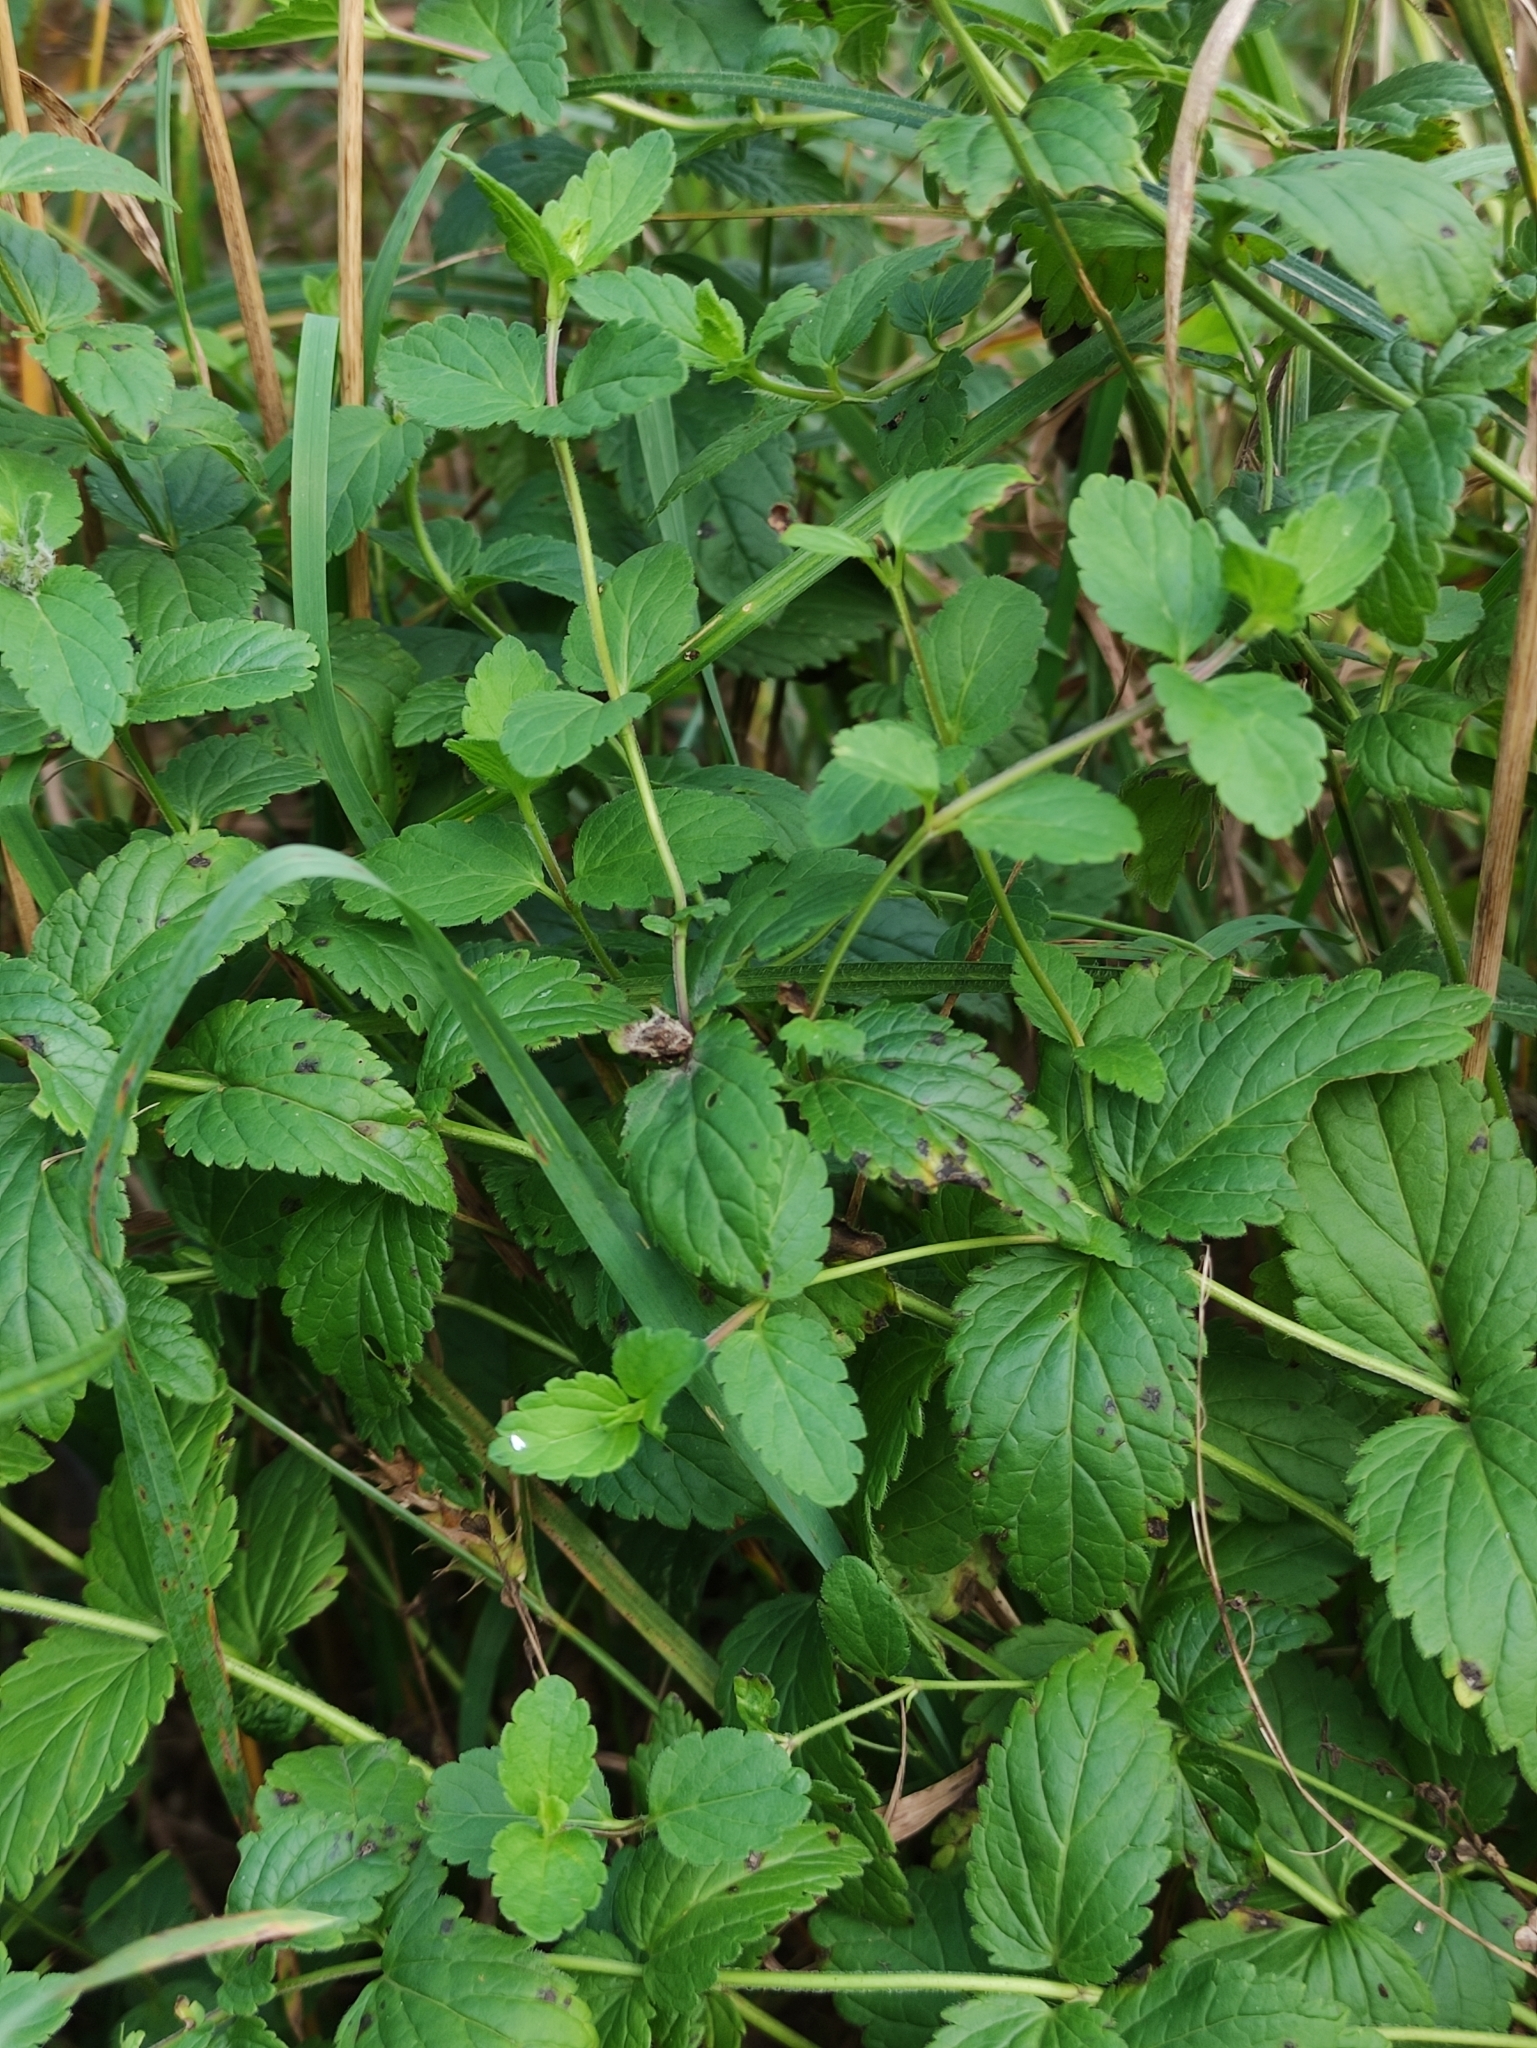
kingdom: Plantae
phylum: Tracheophyta
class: Magnoliopsida
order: Lamiales
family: Plantaginaceae
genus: Veronica
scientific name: Veronica chamaedrys
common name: Germander speedwell
